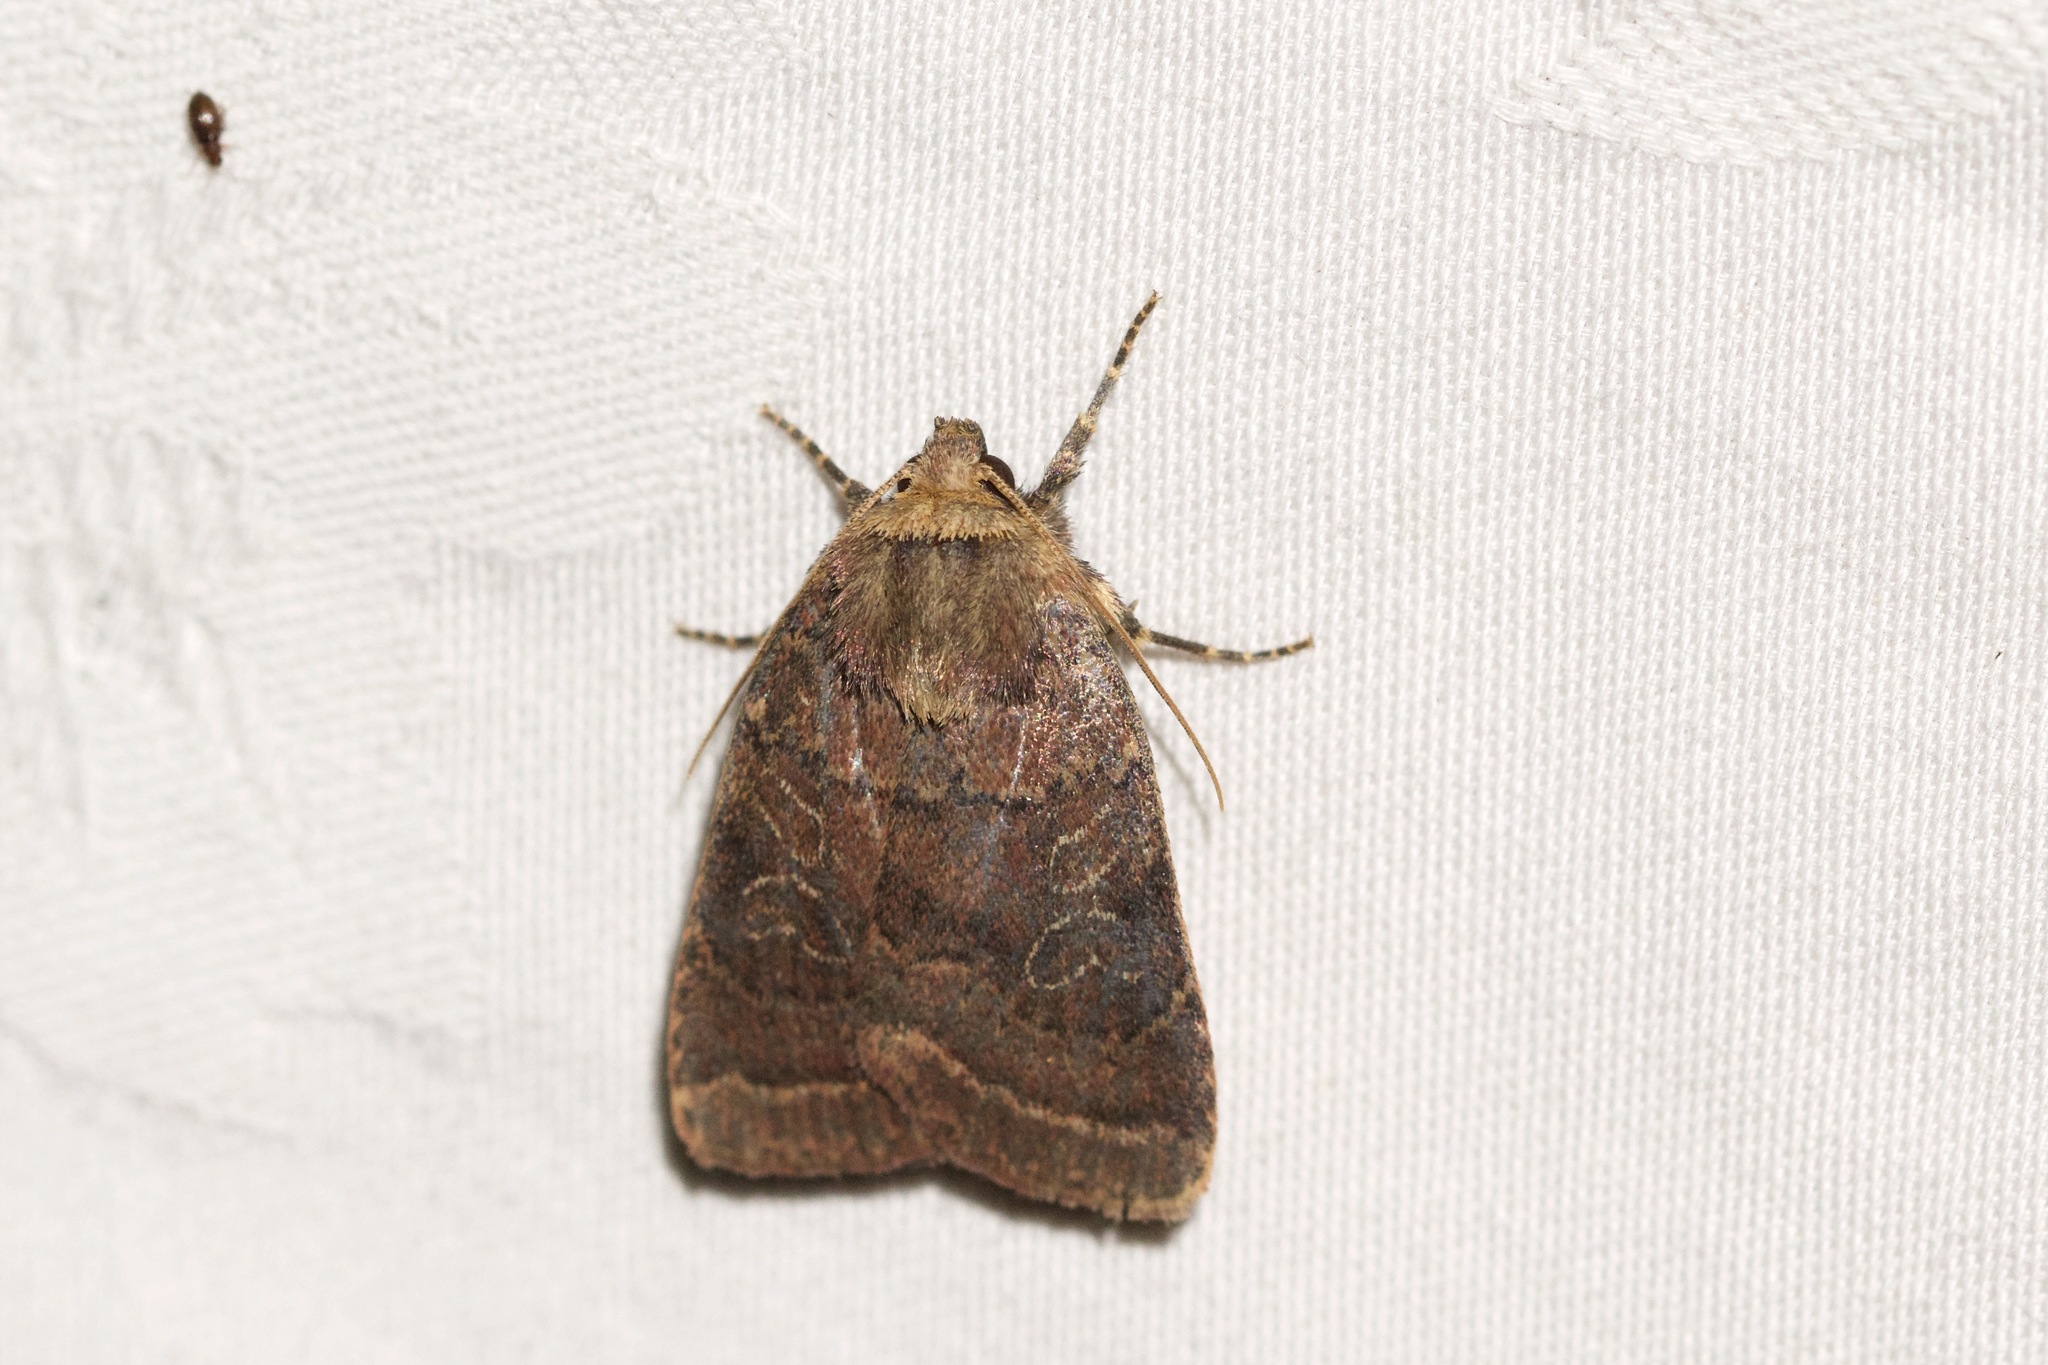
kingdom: Animalia
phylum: Arthropoda
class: Insecta
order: Lepidoptera
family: Noctuidae
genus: Orthodes
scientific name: Orthodes cynica
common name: Cynical quaker
